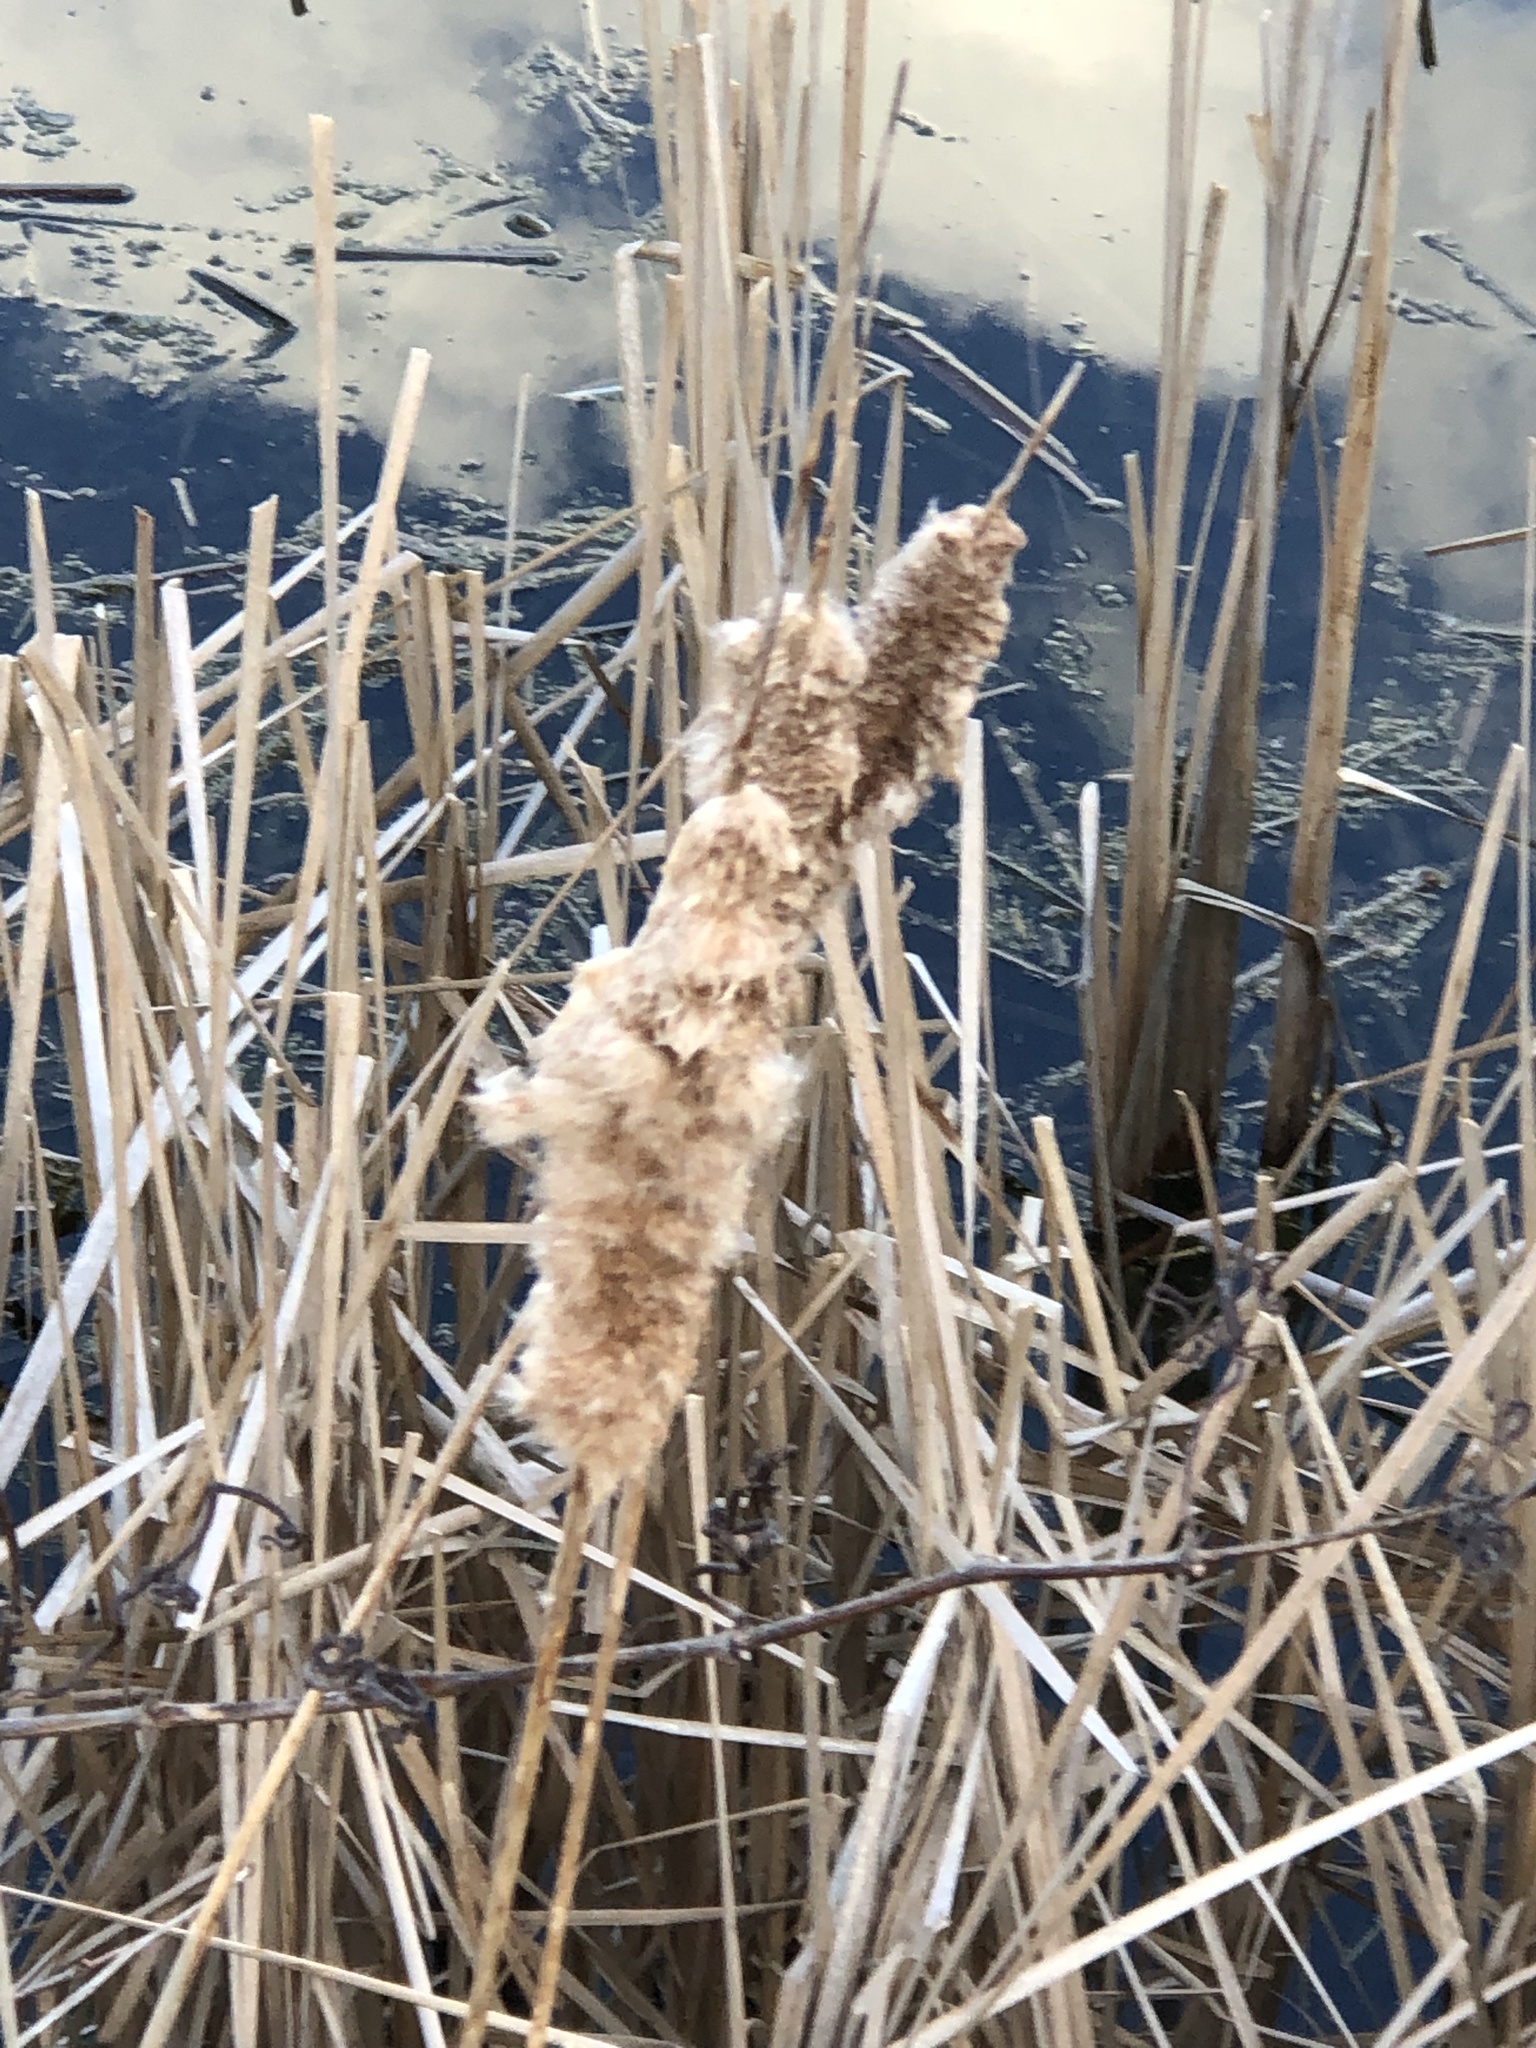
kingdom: Plantae
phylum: Tracheophyta
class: Liliopsida
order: Poales
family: Typhaceae
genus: Typha
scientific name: Typha latifolia
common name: Broadleaf cattail
